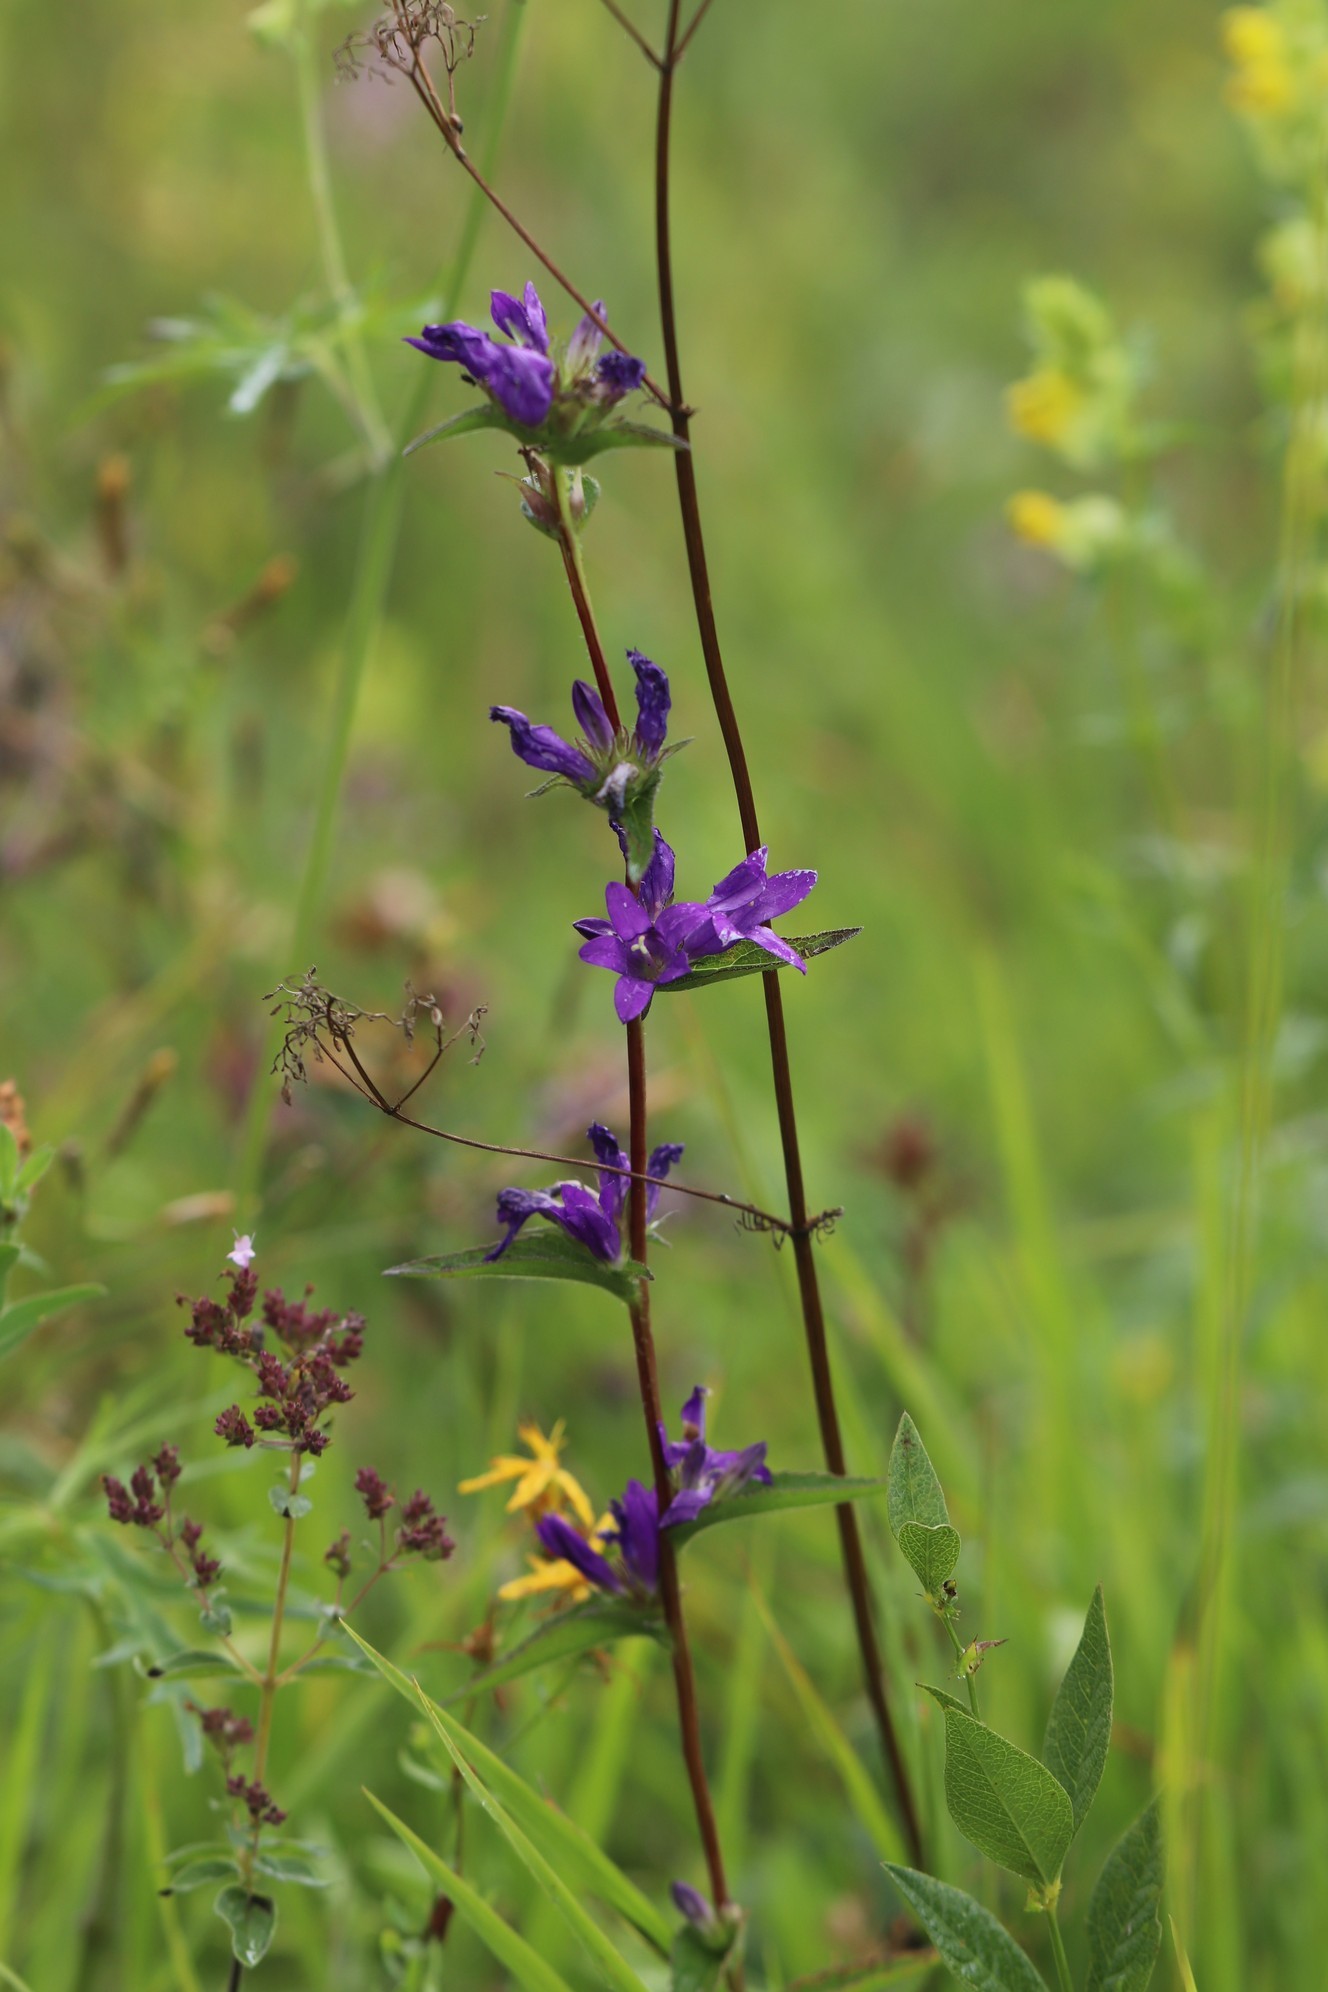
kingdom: Plantae
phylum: Tracheophyta
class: Magnoliopsida
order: Asterales
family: Campanulaceae
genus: Campanula
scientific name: Campanula glomerata
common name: Clustered bellflower
